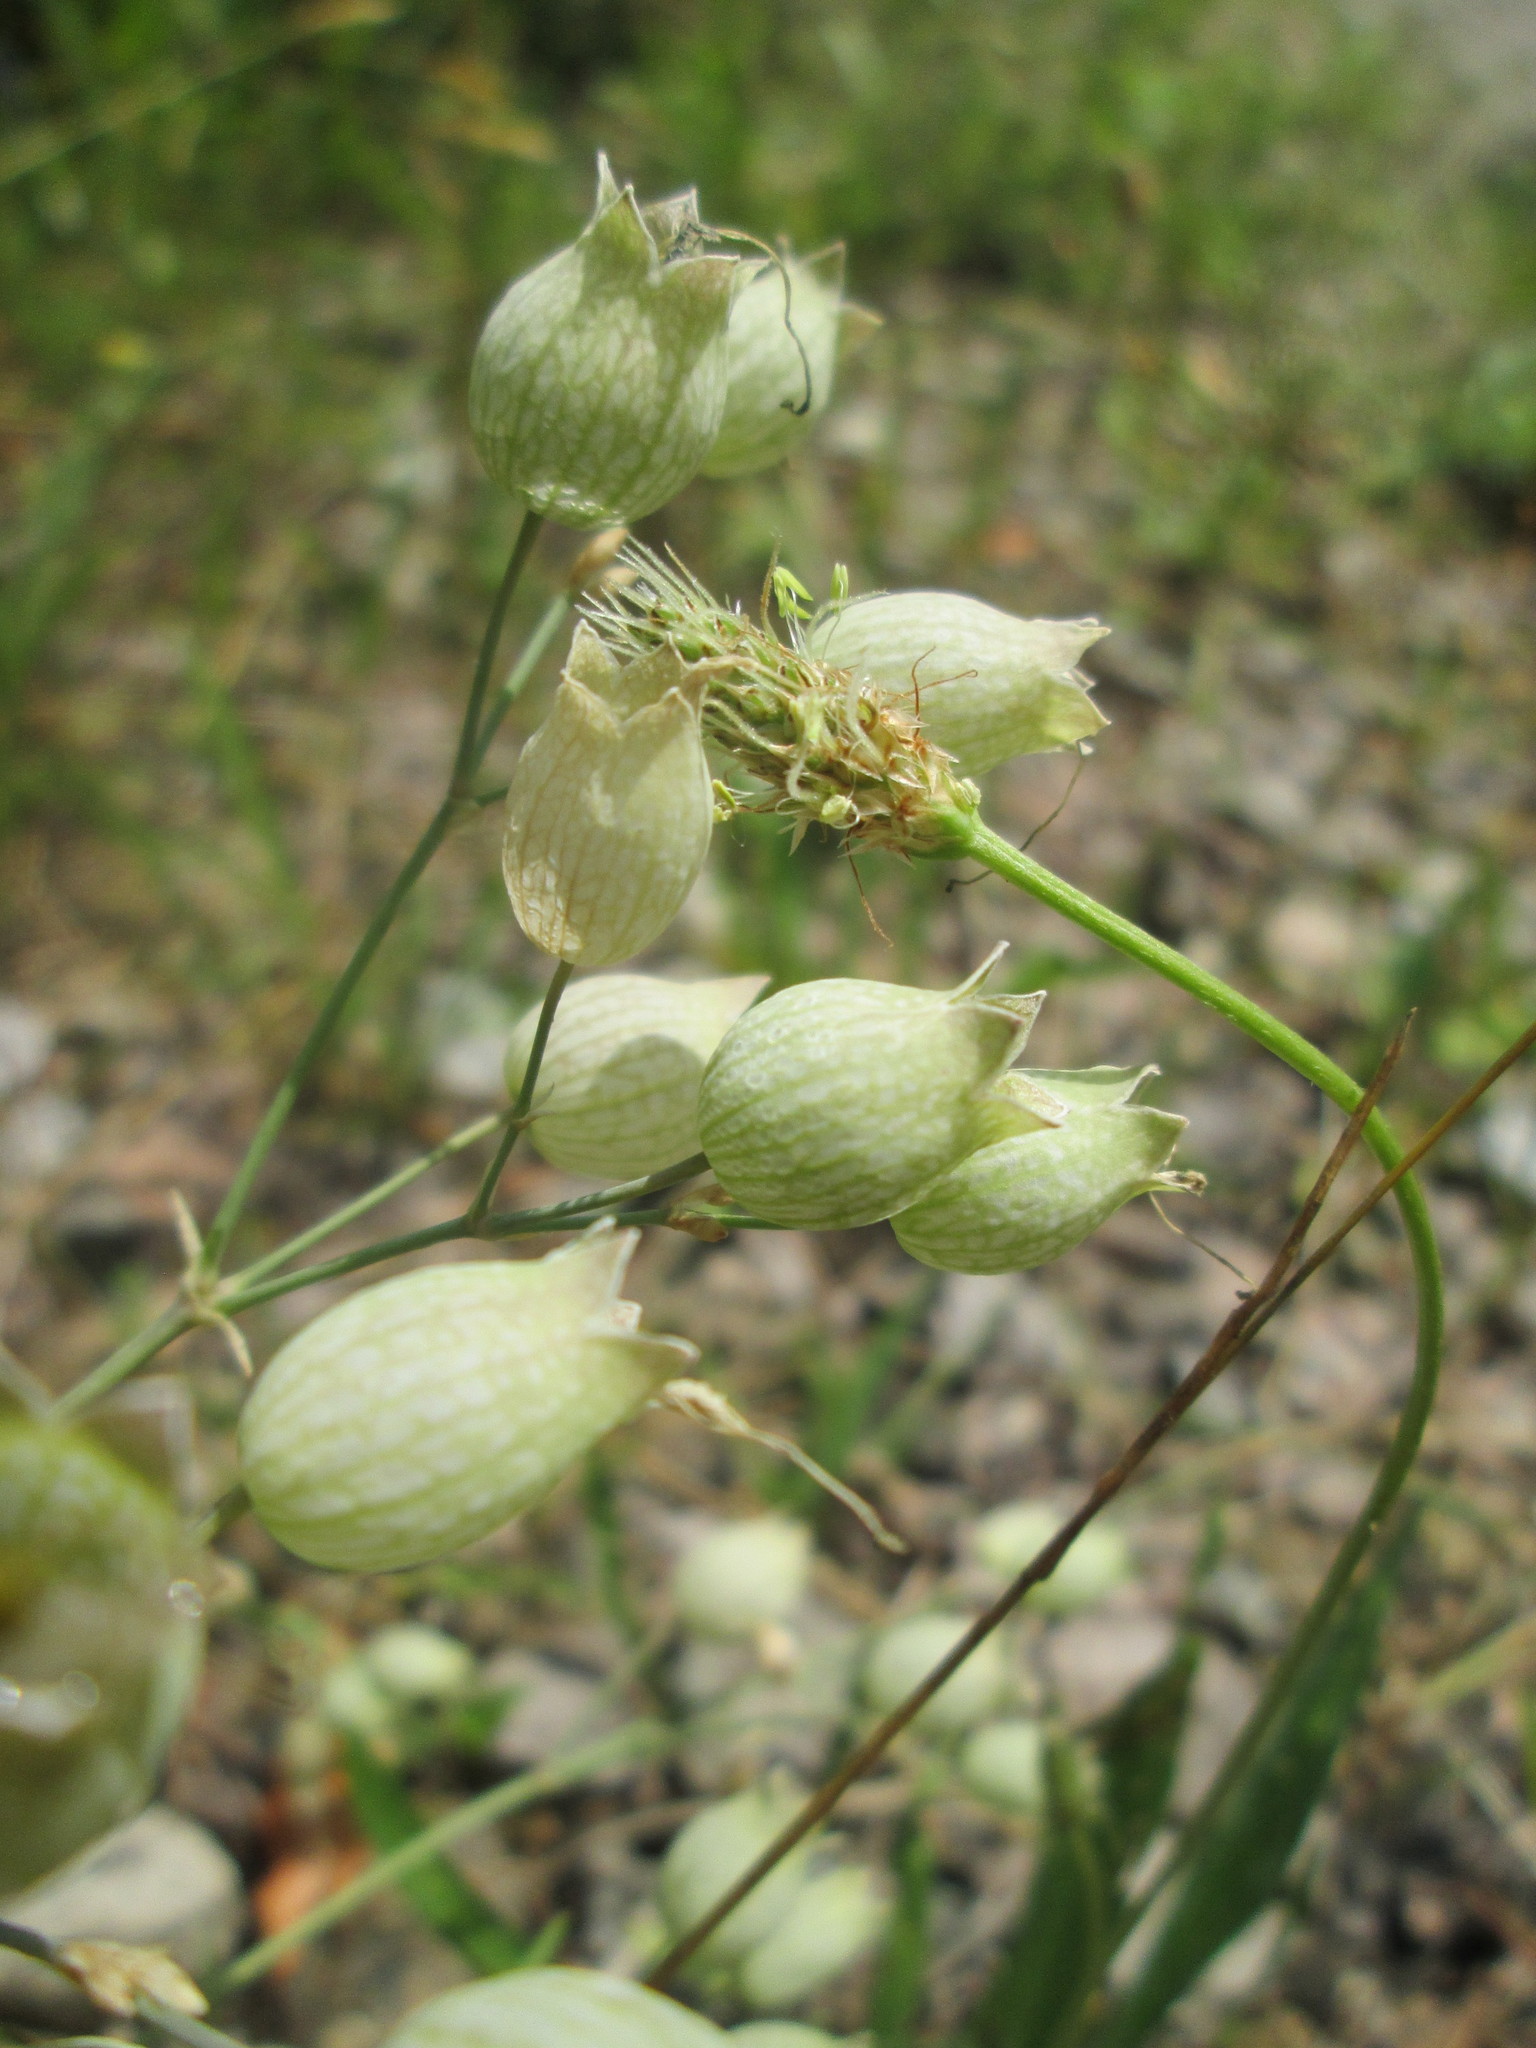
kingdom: Plantae
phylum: Tracheophyta
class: Magnoliopsida
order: Caryophyllales
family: Caryophyllaceae
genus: Silene
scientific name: Silene vulgaris
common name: Bladder campion
